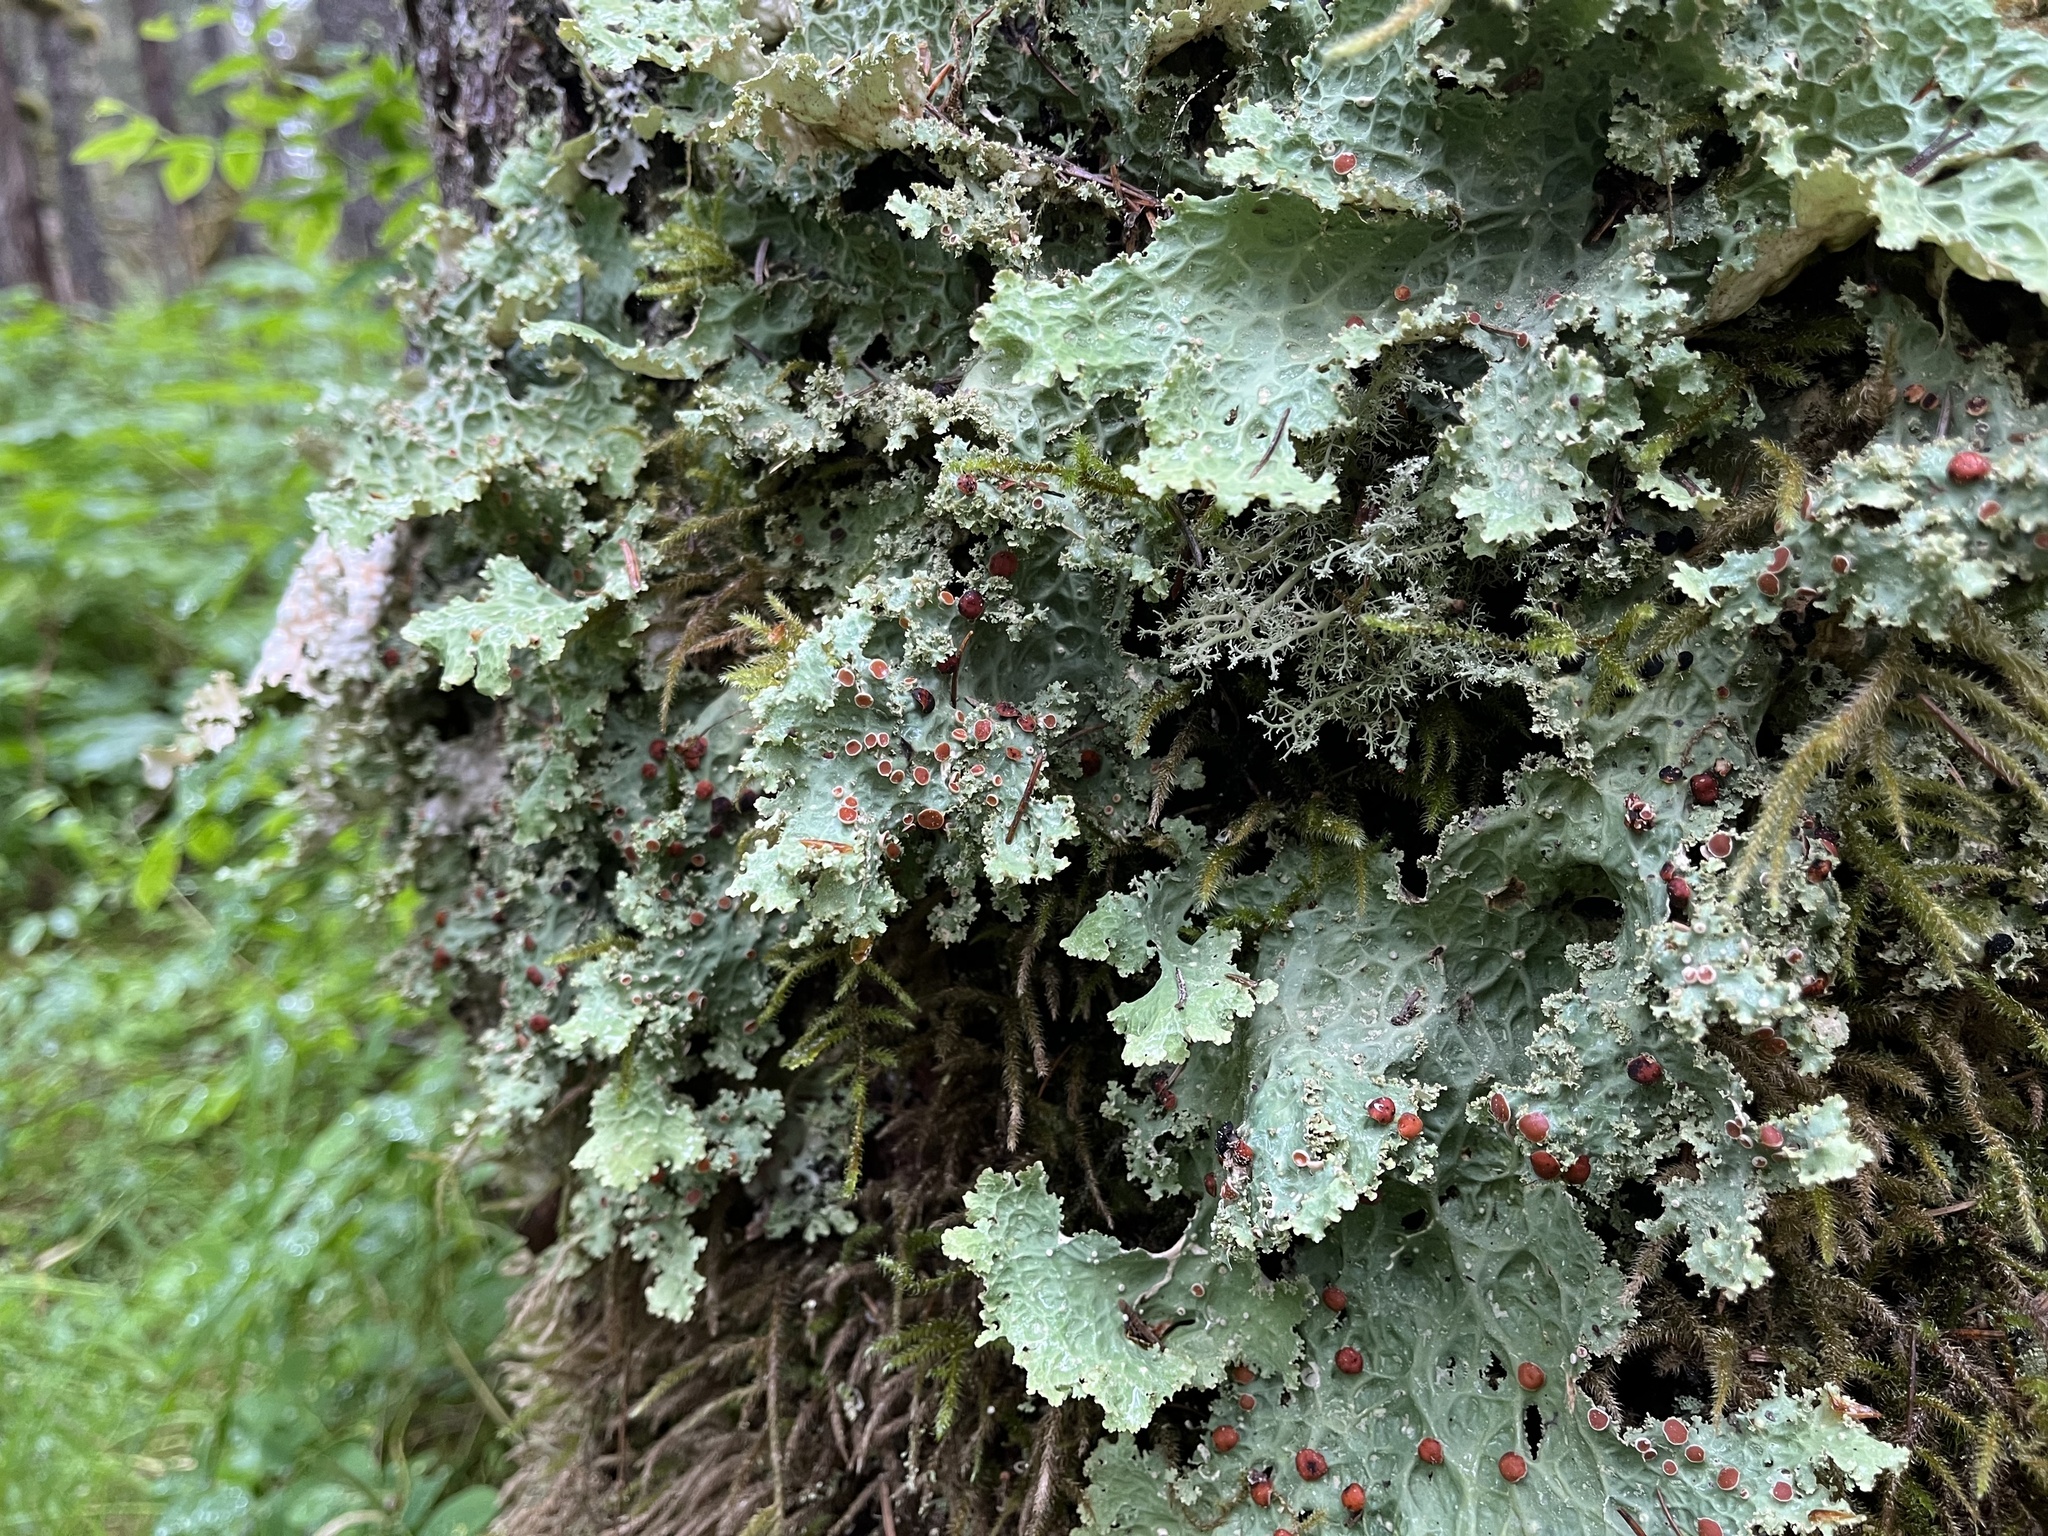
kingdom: Fungi
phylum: Ascomycota
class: Lecanoromycetes
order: Peltigerales
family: Lobariaceae
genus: Lobaria
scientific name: Lobaria oregana
